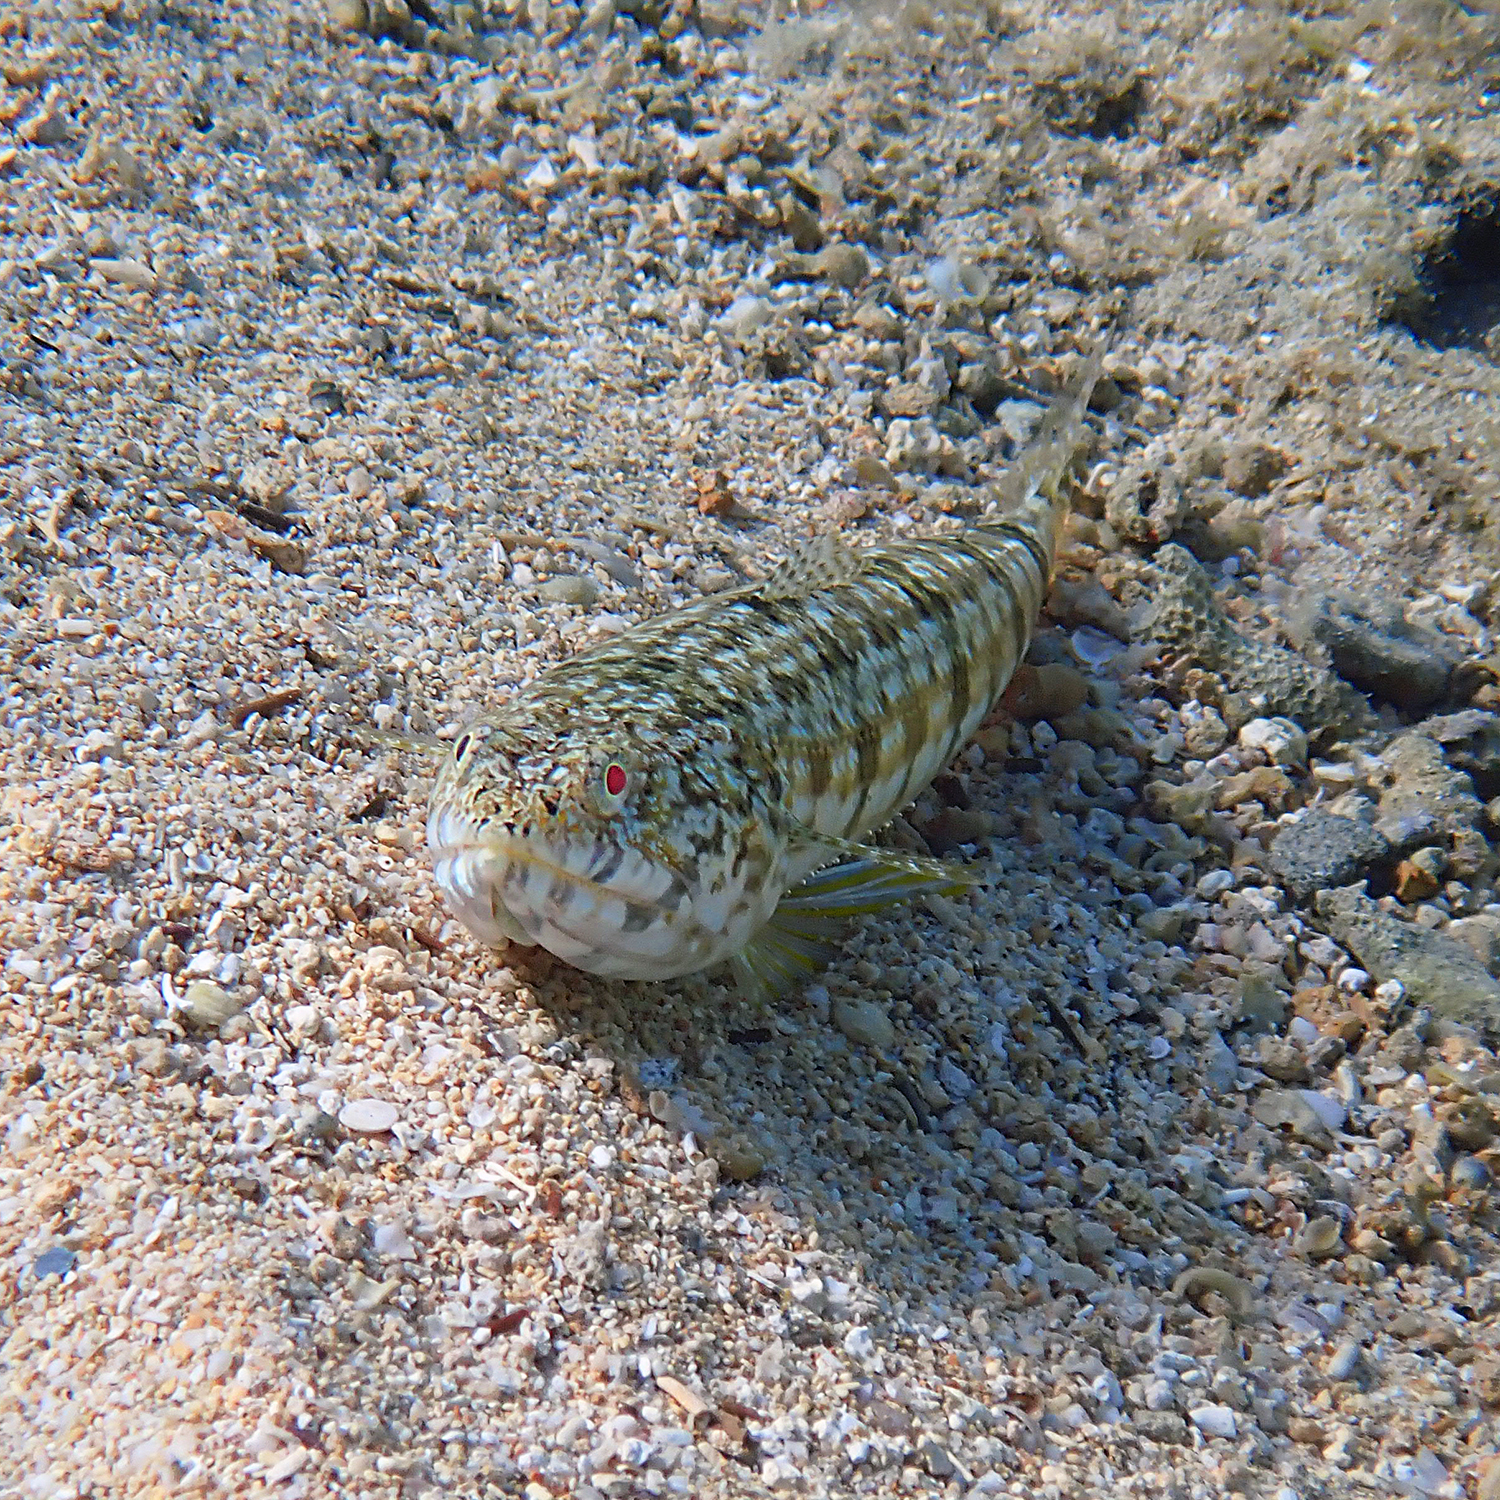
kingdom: Animalia
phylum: Chordata
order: Aulopiformes
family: Synodontidae
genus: Synodus
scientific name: Synodus dermatogenys
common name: Banded lizardfish
